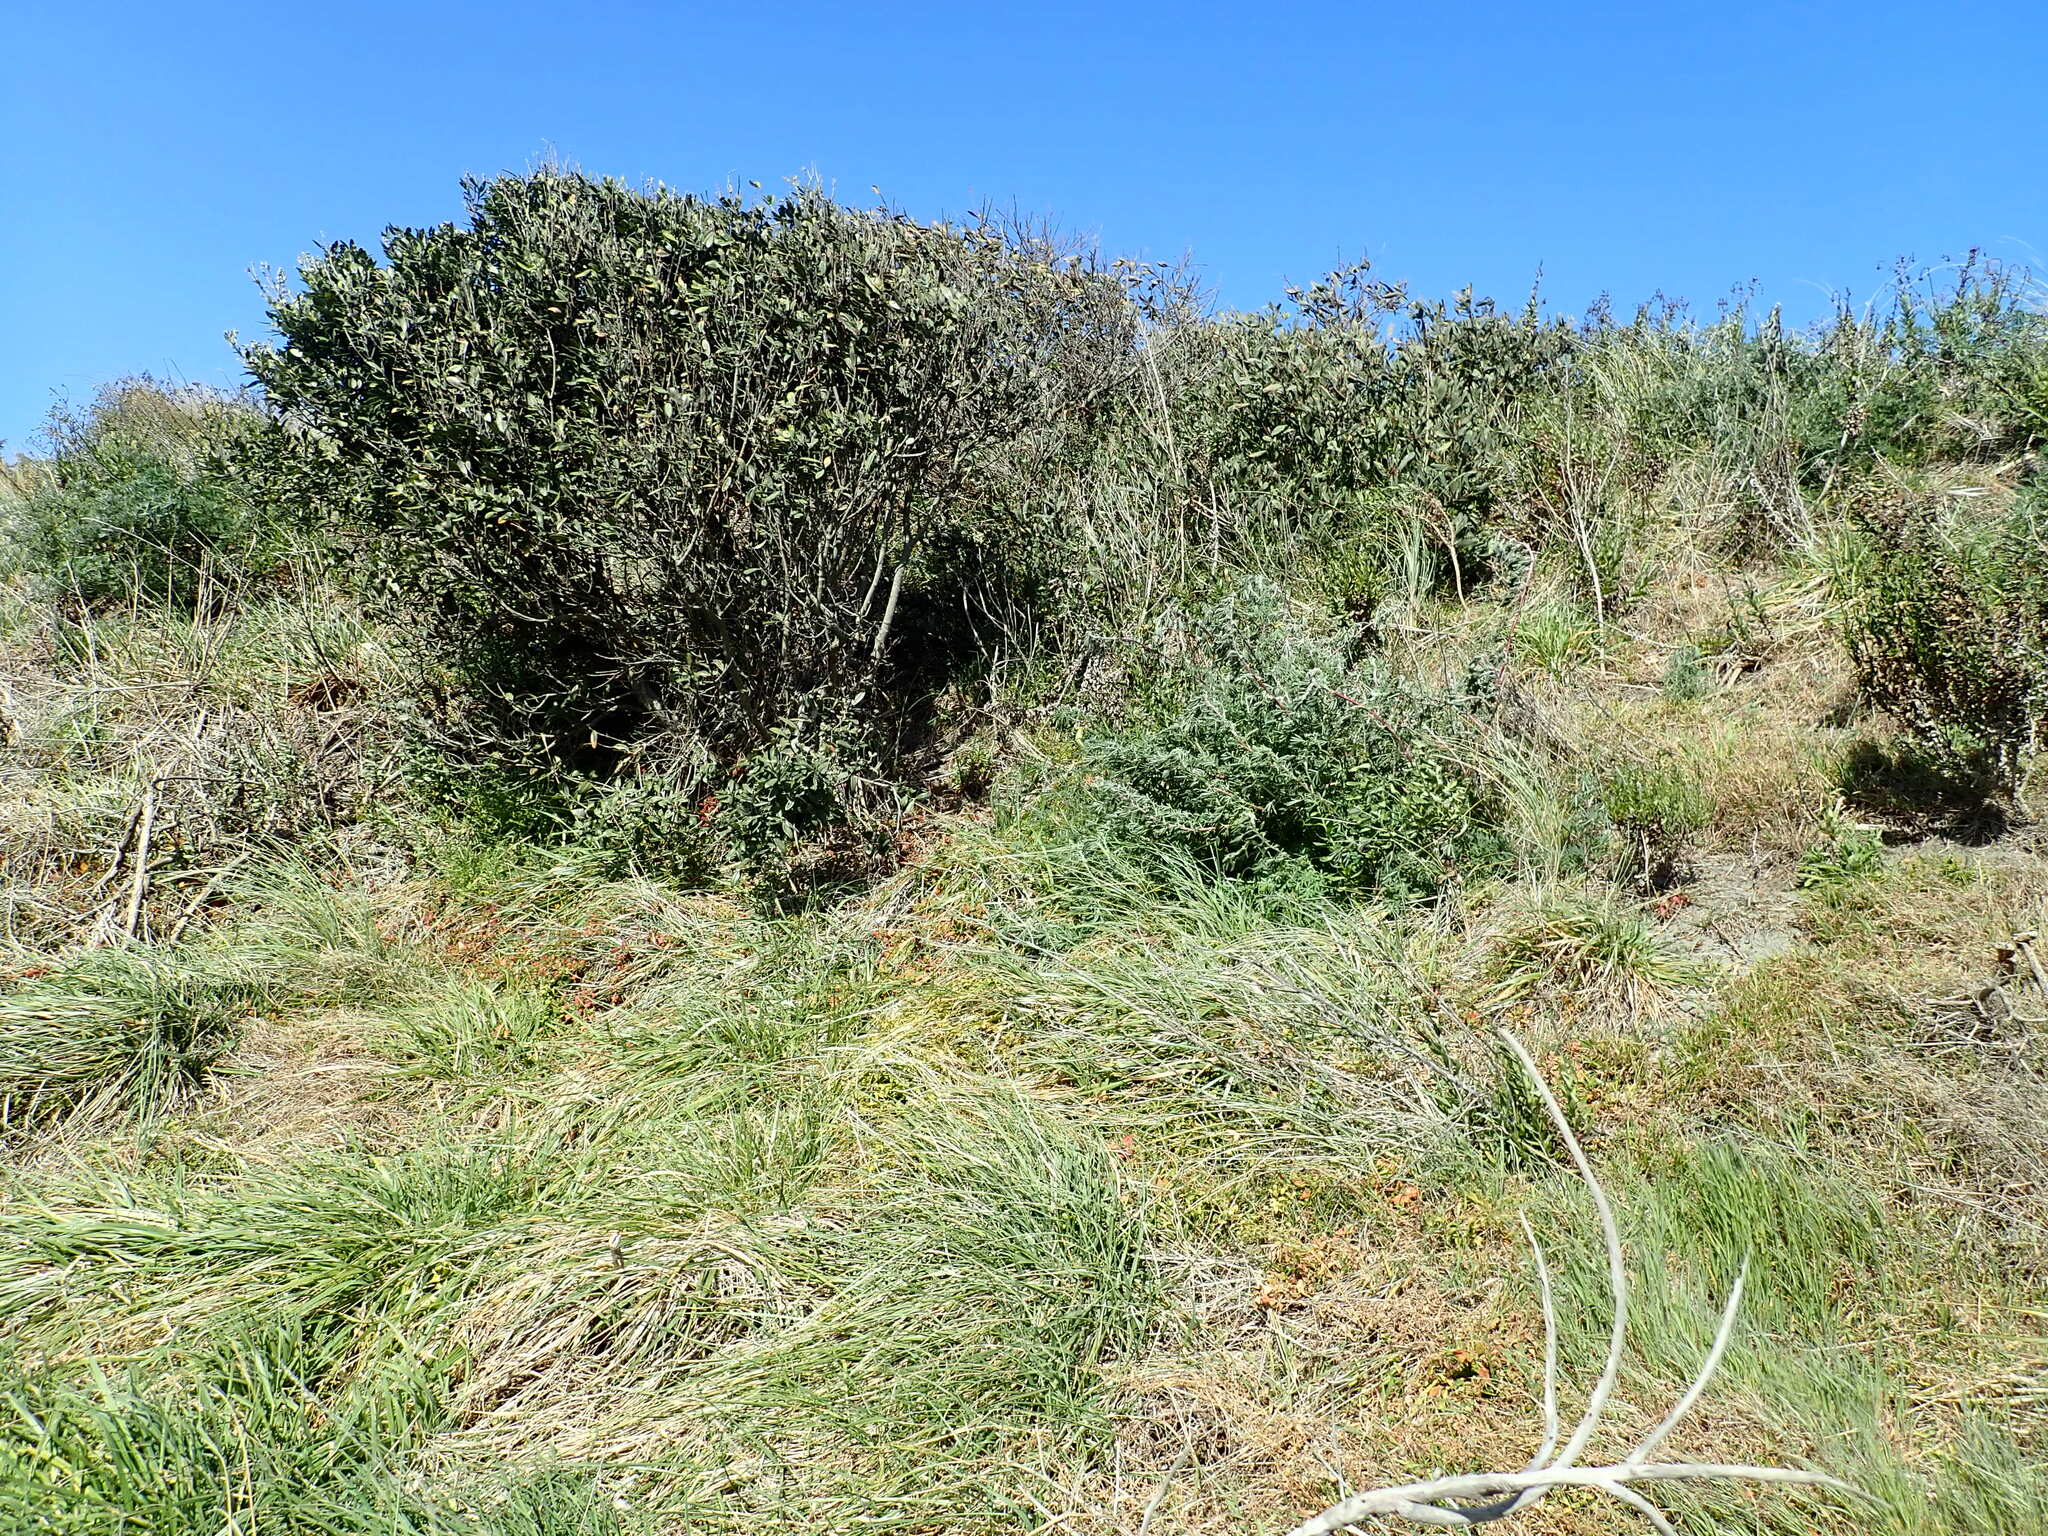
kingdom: Plantae
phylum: Tracheophyta
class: Magnoliopsida
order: Myrtales
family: Myrtaceae
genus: Metrosideros
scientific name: Metrosideros excelsa
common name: New zealand christmastree
